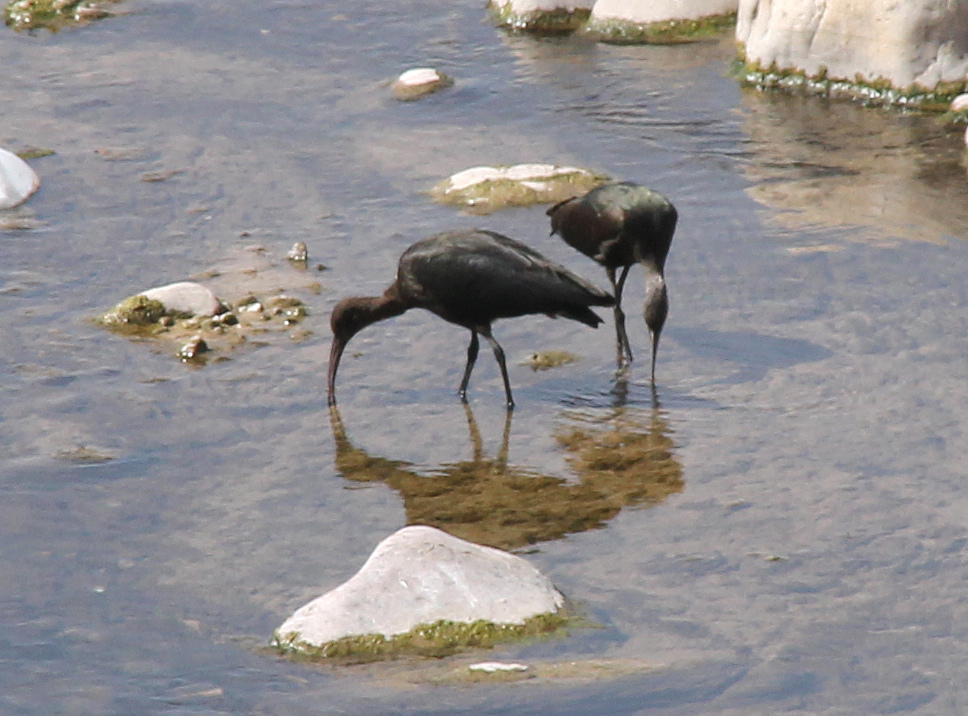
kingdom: Animalia
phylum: Chordata
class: Aves
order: Pelecaniformes
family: Threskiornithidae
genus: Plegadis
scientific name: Plegadis chihi
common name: White-faced ibis
